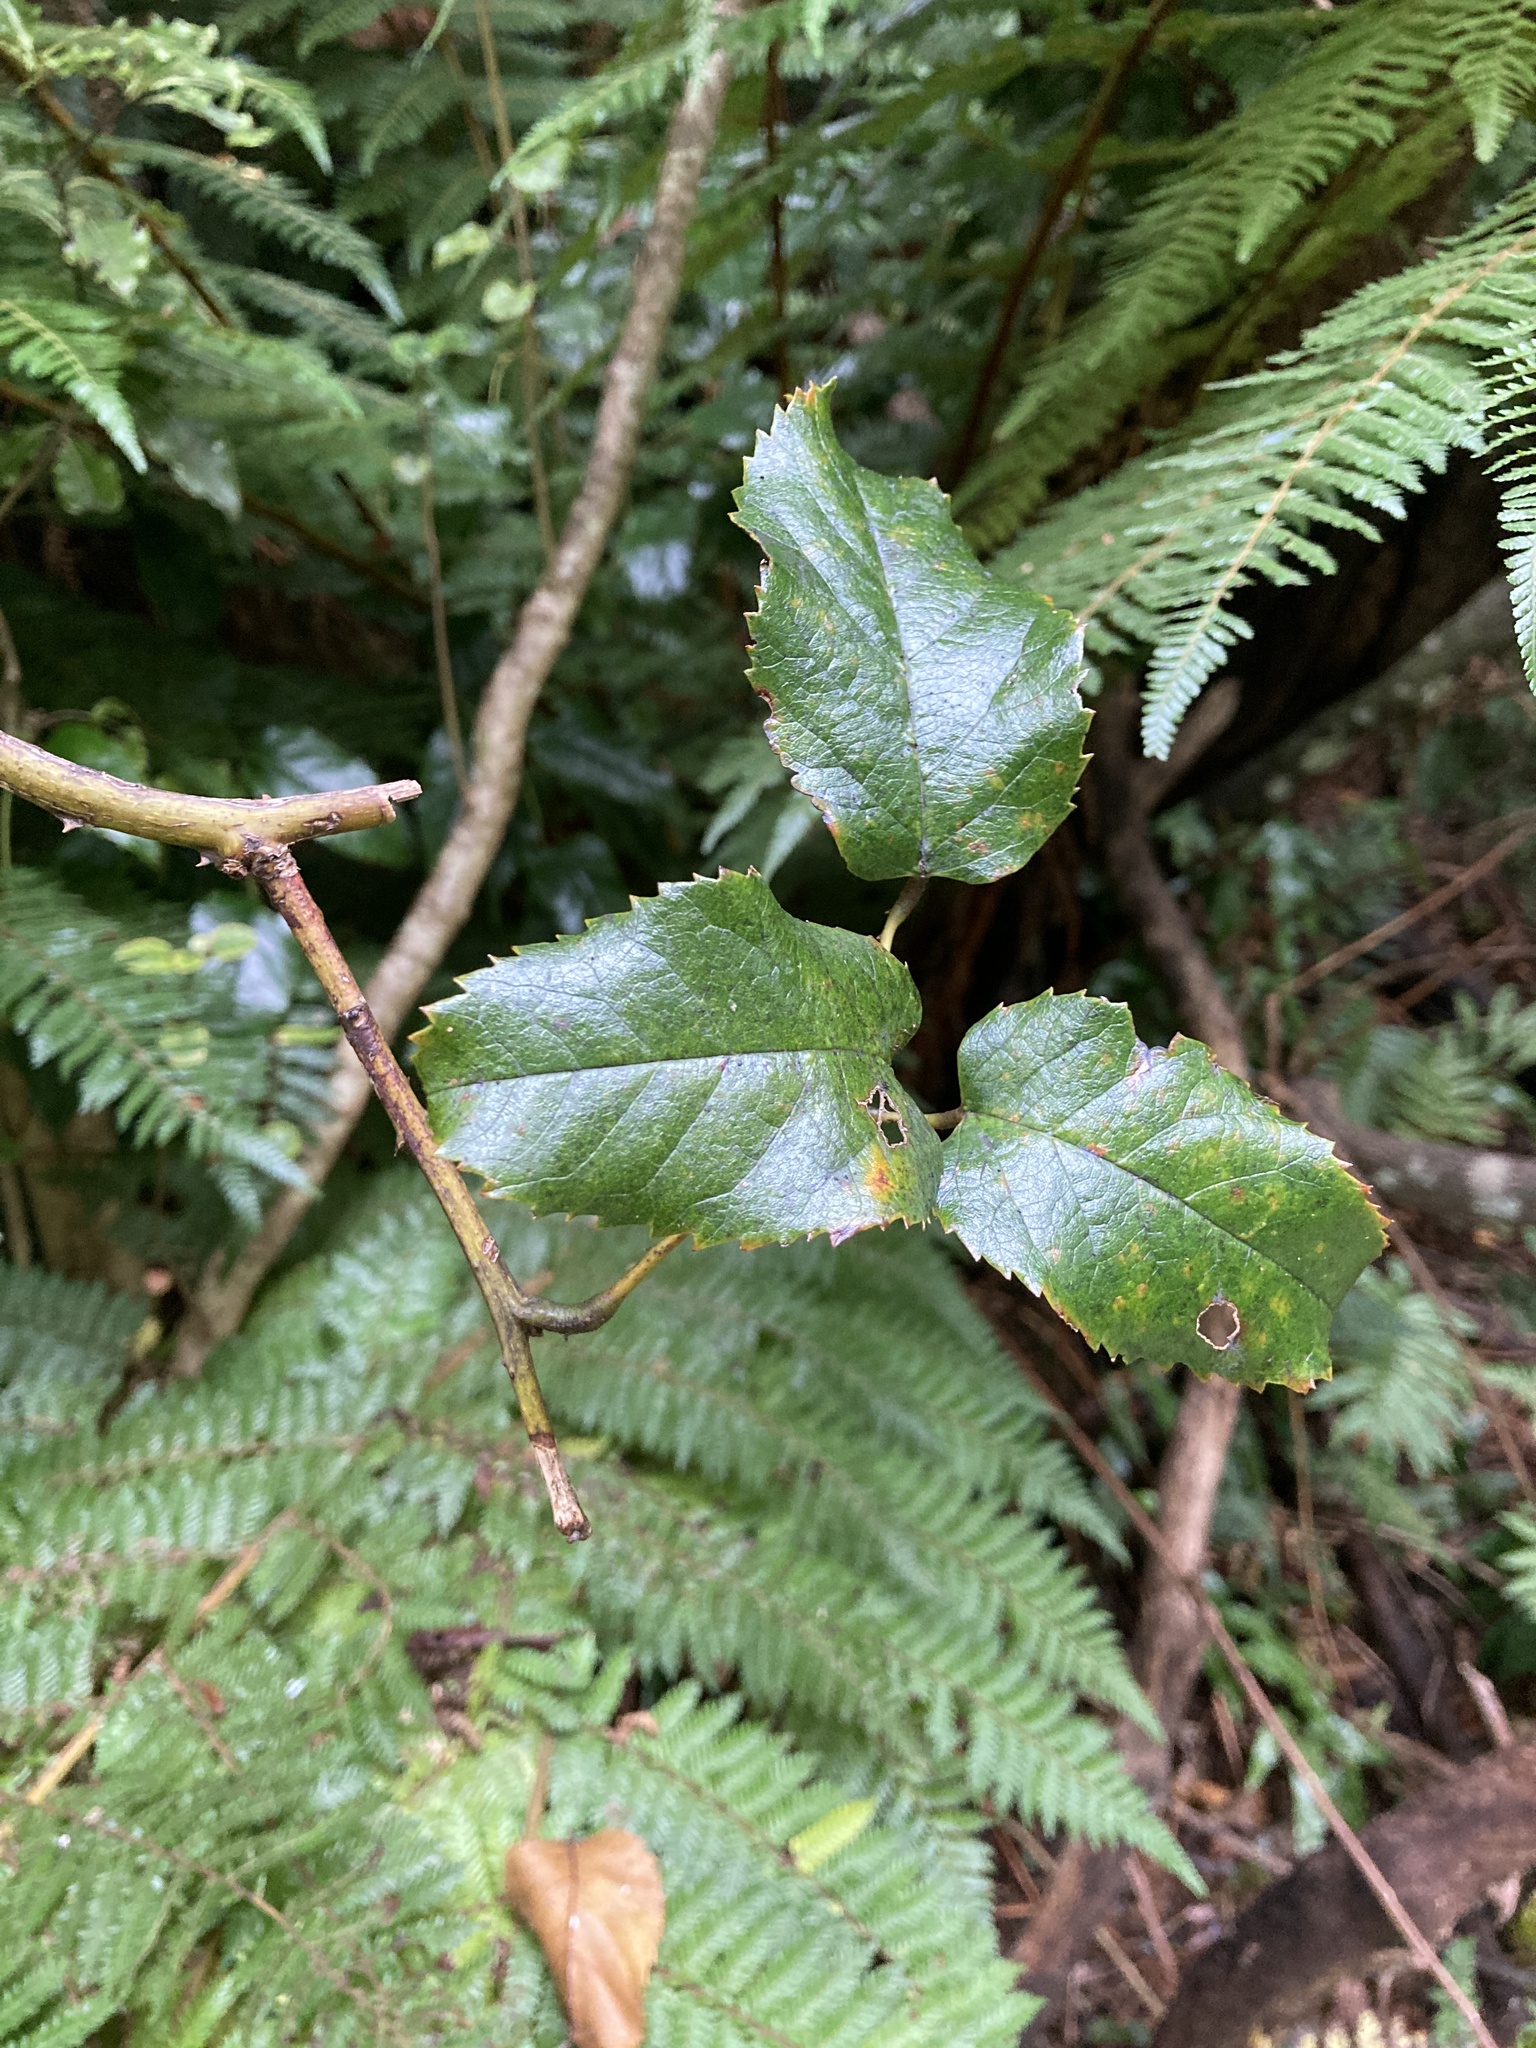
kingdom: Plantae
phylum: Tracheophyta
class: Magnoliopsida
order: Rosales
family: Rosaceae
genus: Rubus
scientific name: Rubus cissoides
